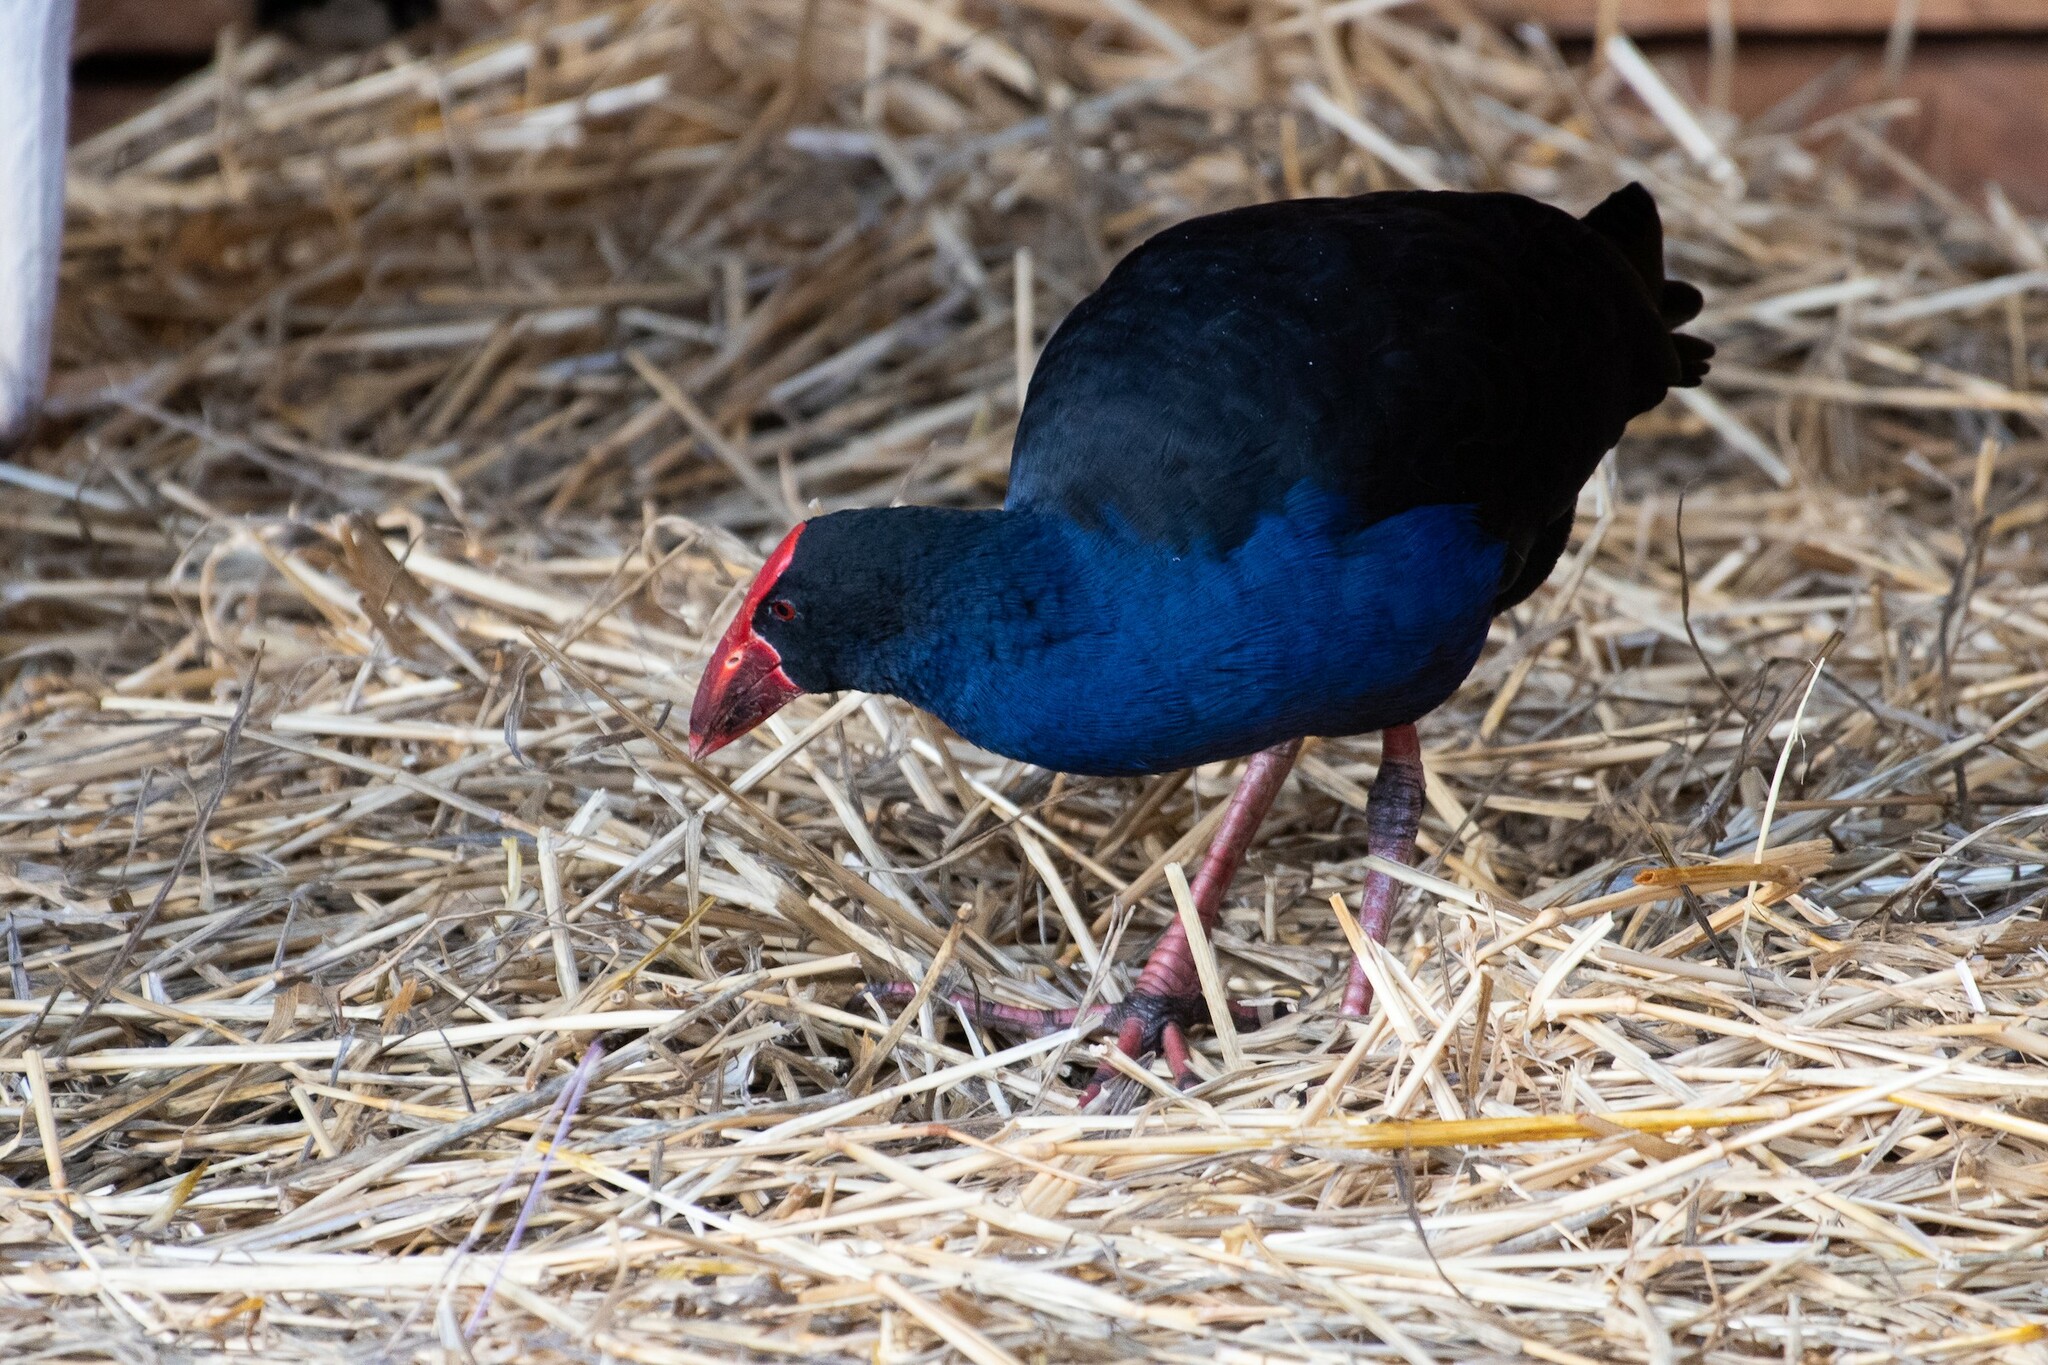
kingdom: Animalia
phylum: Chordata
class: Aves
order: Gruiformes
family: Rallidae
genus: Porphyrio
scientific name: Porphyrio melanotus
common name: Australasian swamphen
